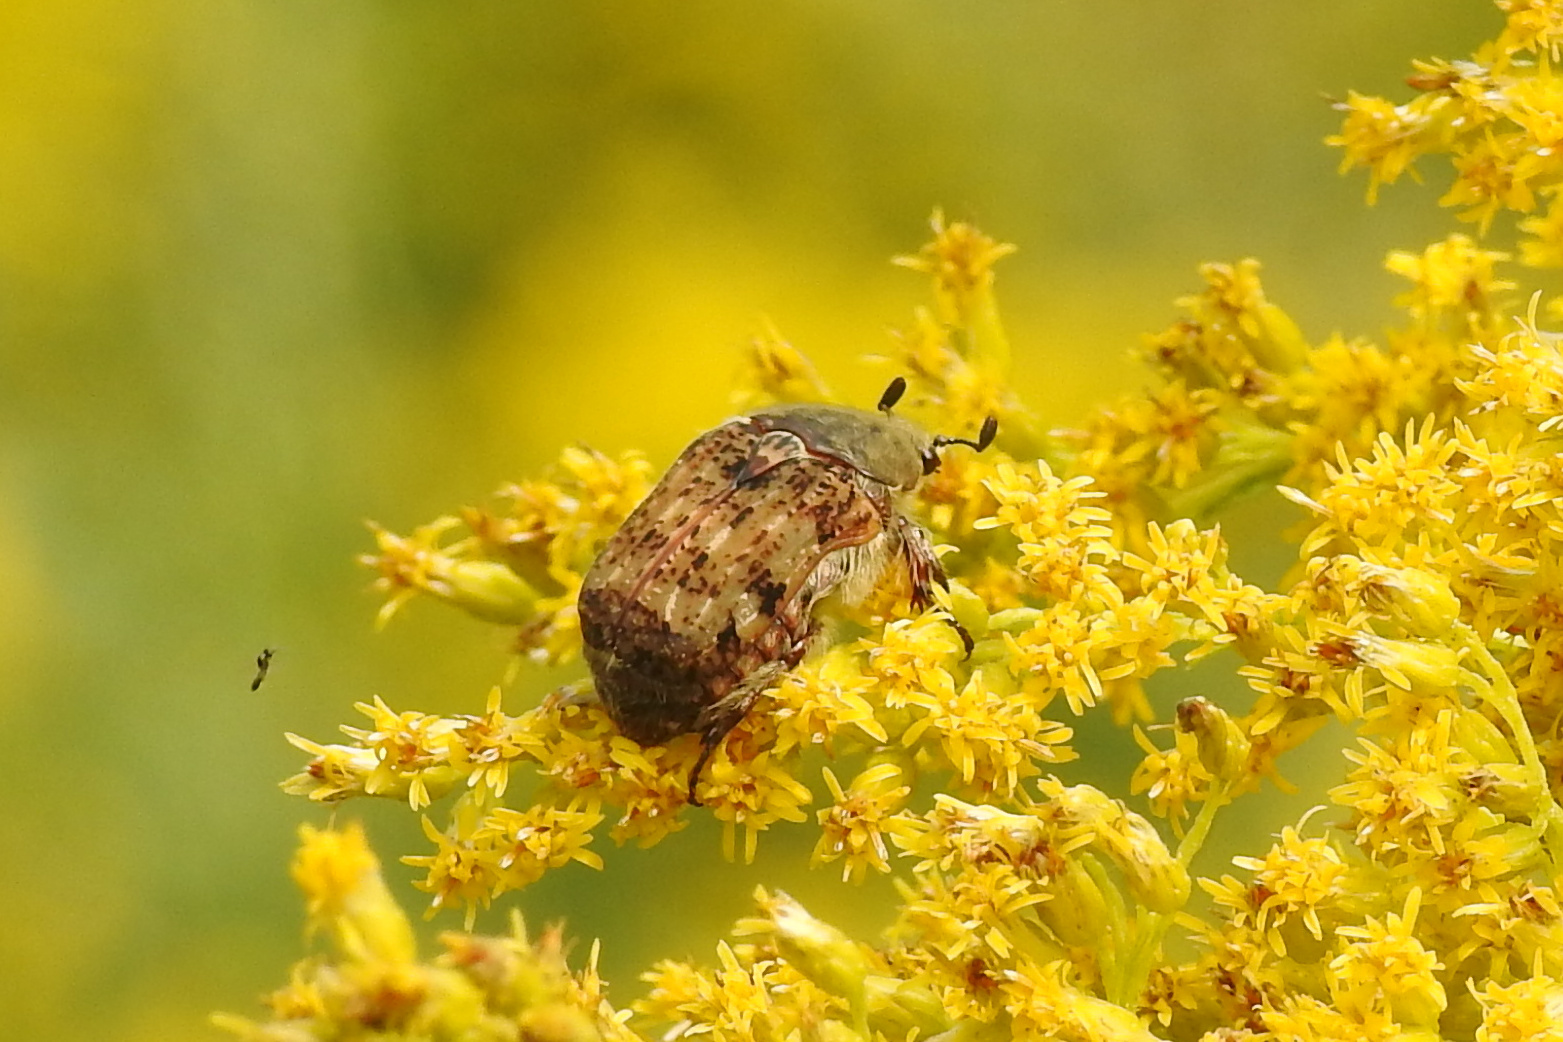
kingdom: Animalia
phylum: Arthropoda
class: Insecta
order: Coleoptera
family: Scarabaeidae
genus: Euphoria
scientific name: Euphoria inda
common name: Bumble flower beetle
